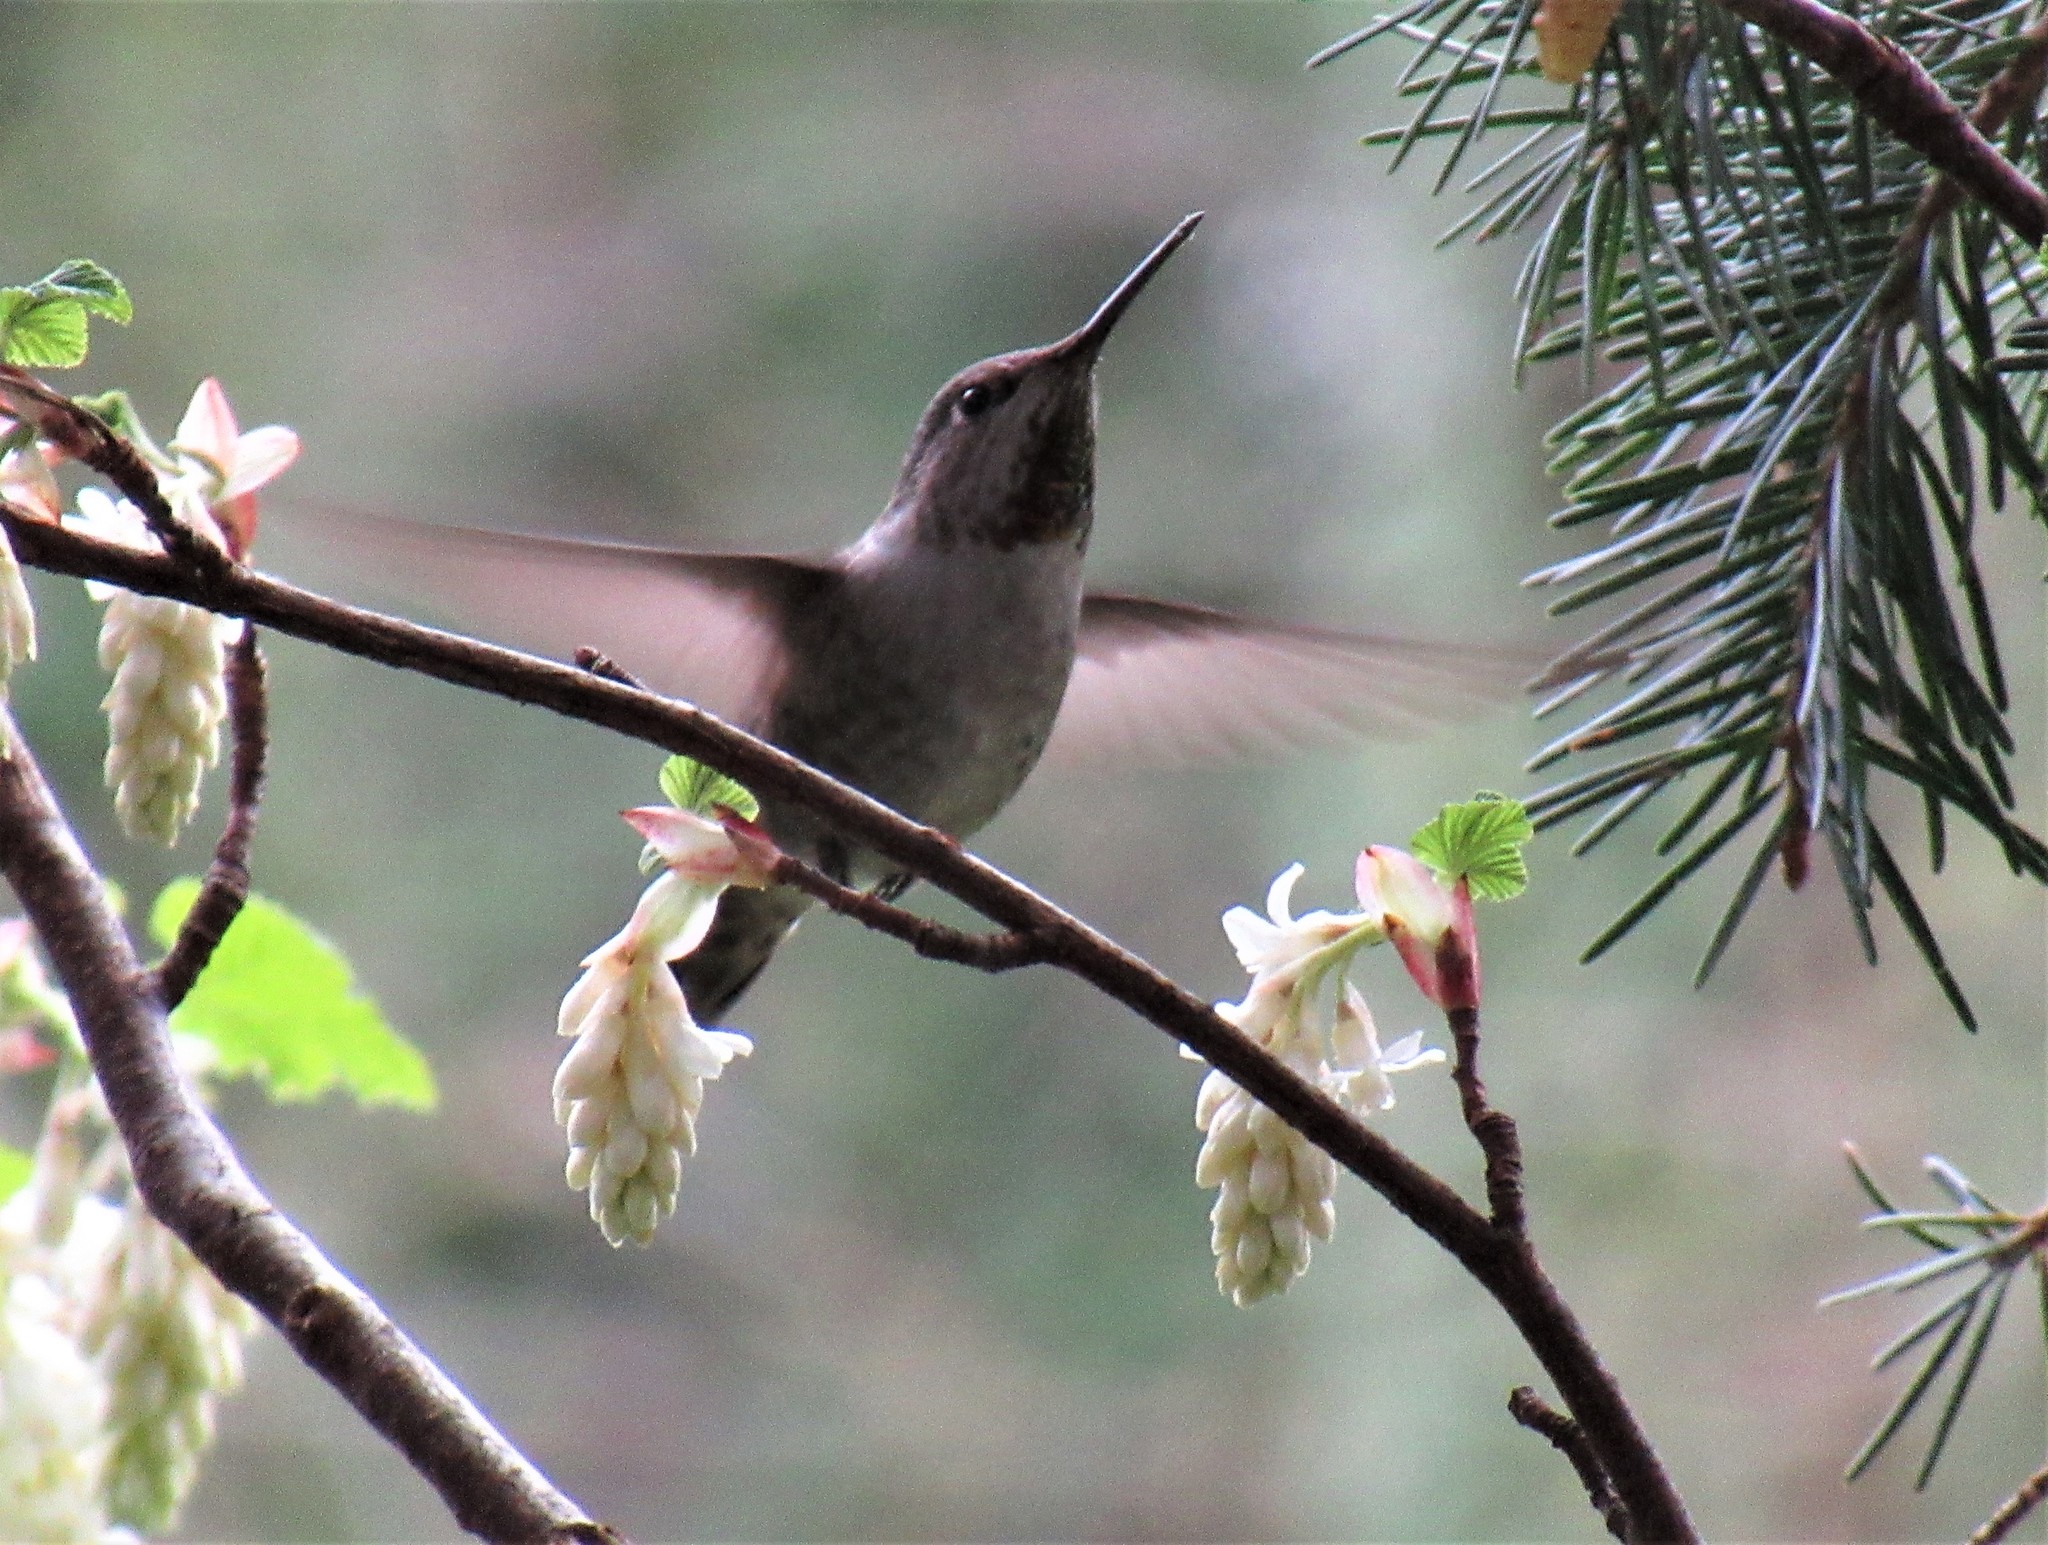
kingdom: Animalia
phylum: Chordata
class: Aves
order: Apodiformes
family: Trochilidae
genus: Calypte
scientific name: Calypte anna
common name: Anna's hummingbird
